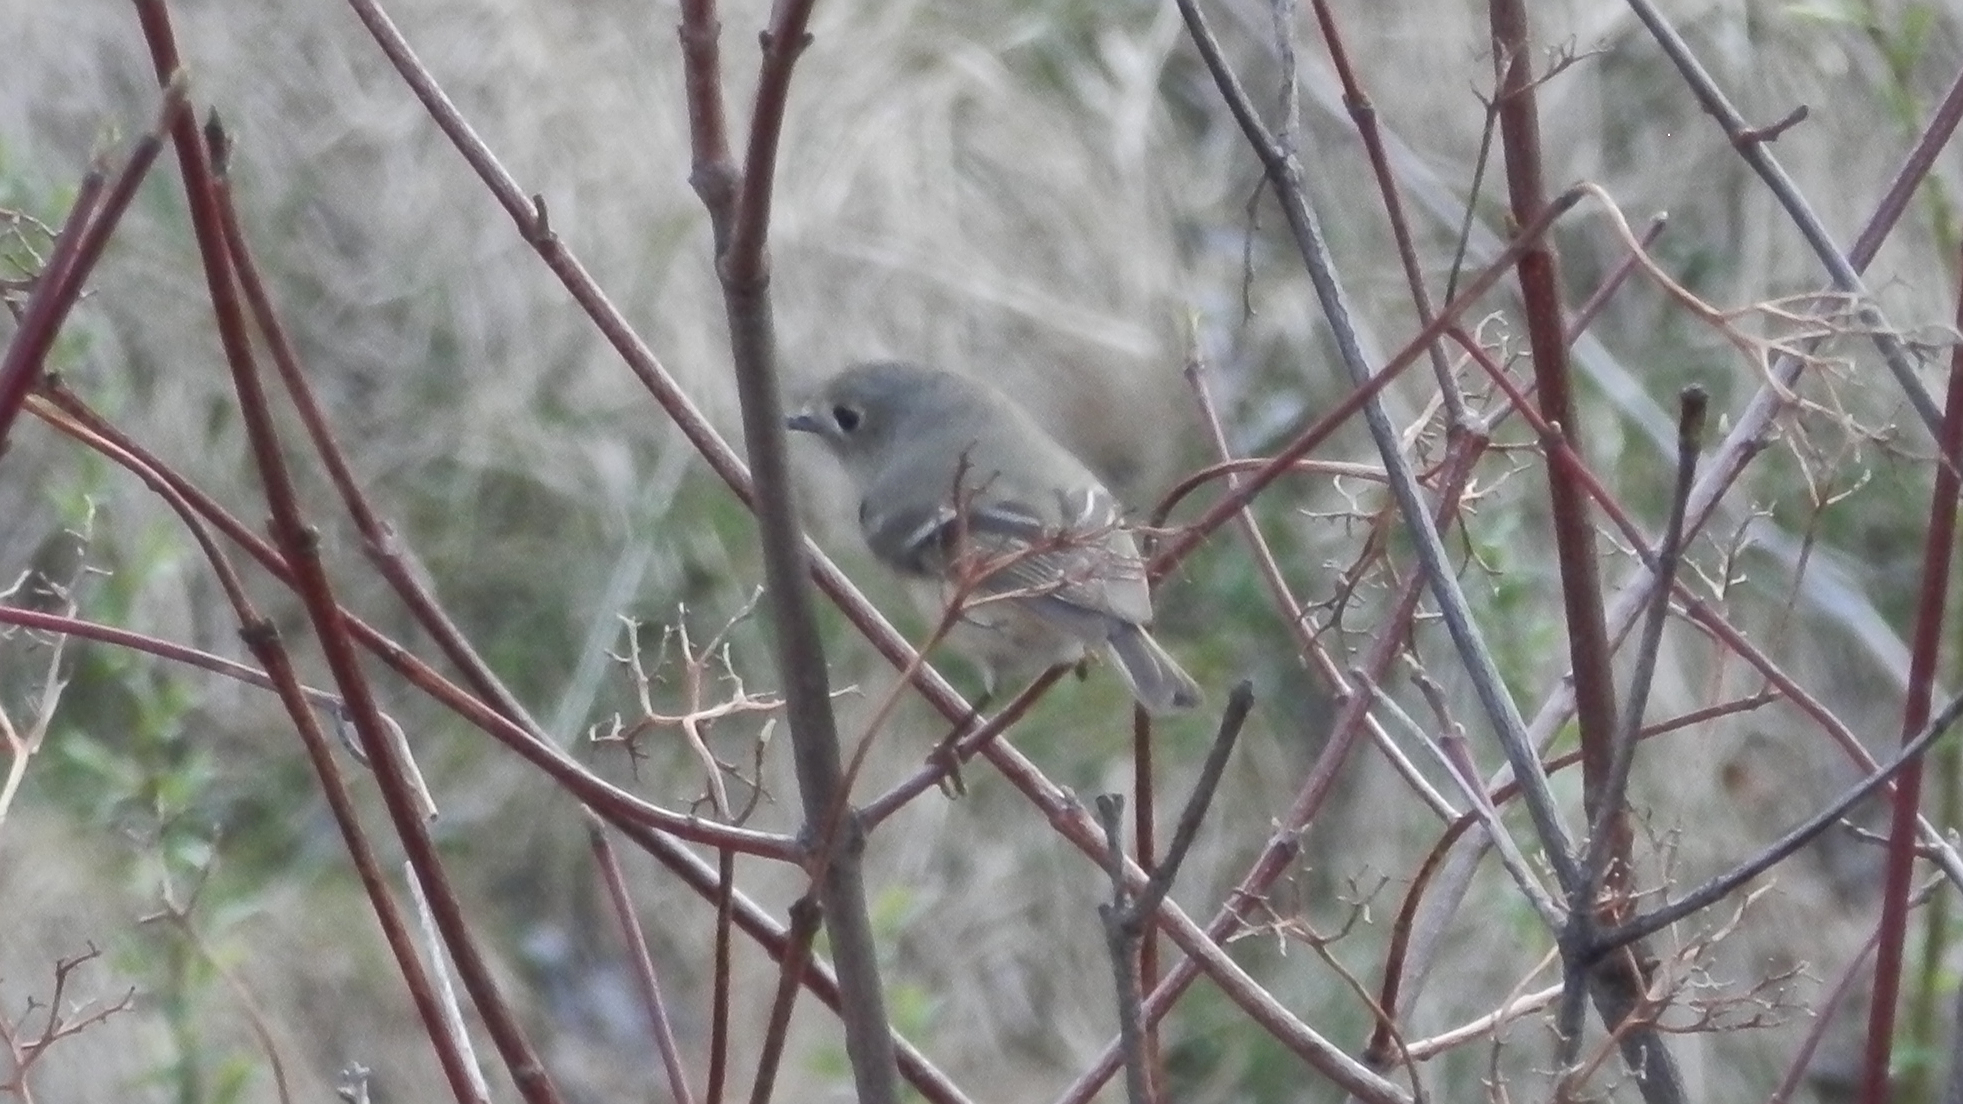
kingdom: Animalia
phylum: Chordata
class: Aves
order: Passeriformes
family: Regulidae
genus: Regulus
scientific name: Regulus calendula
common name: Ruby-crowned kinglet
